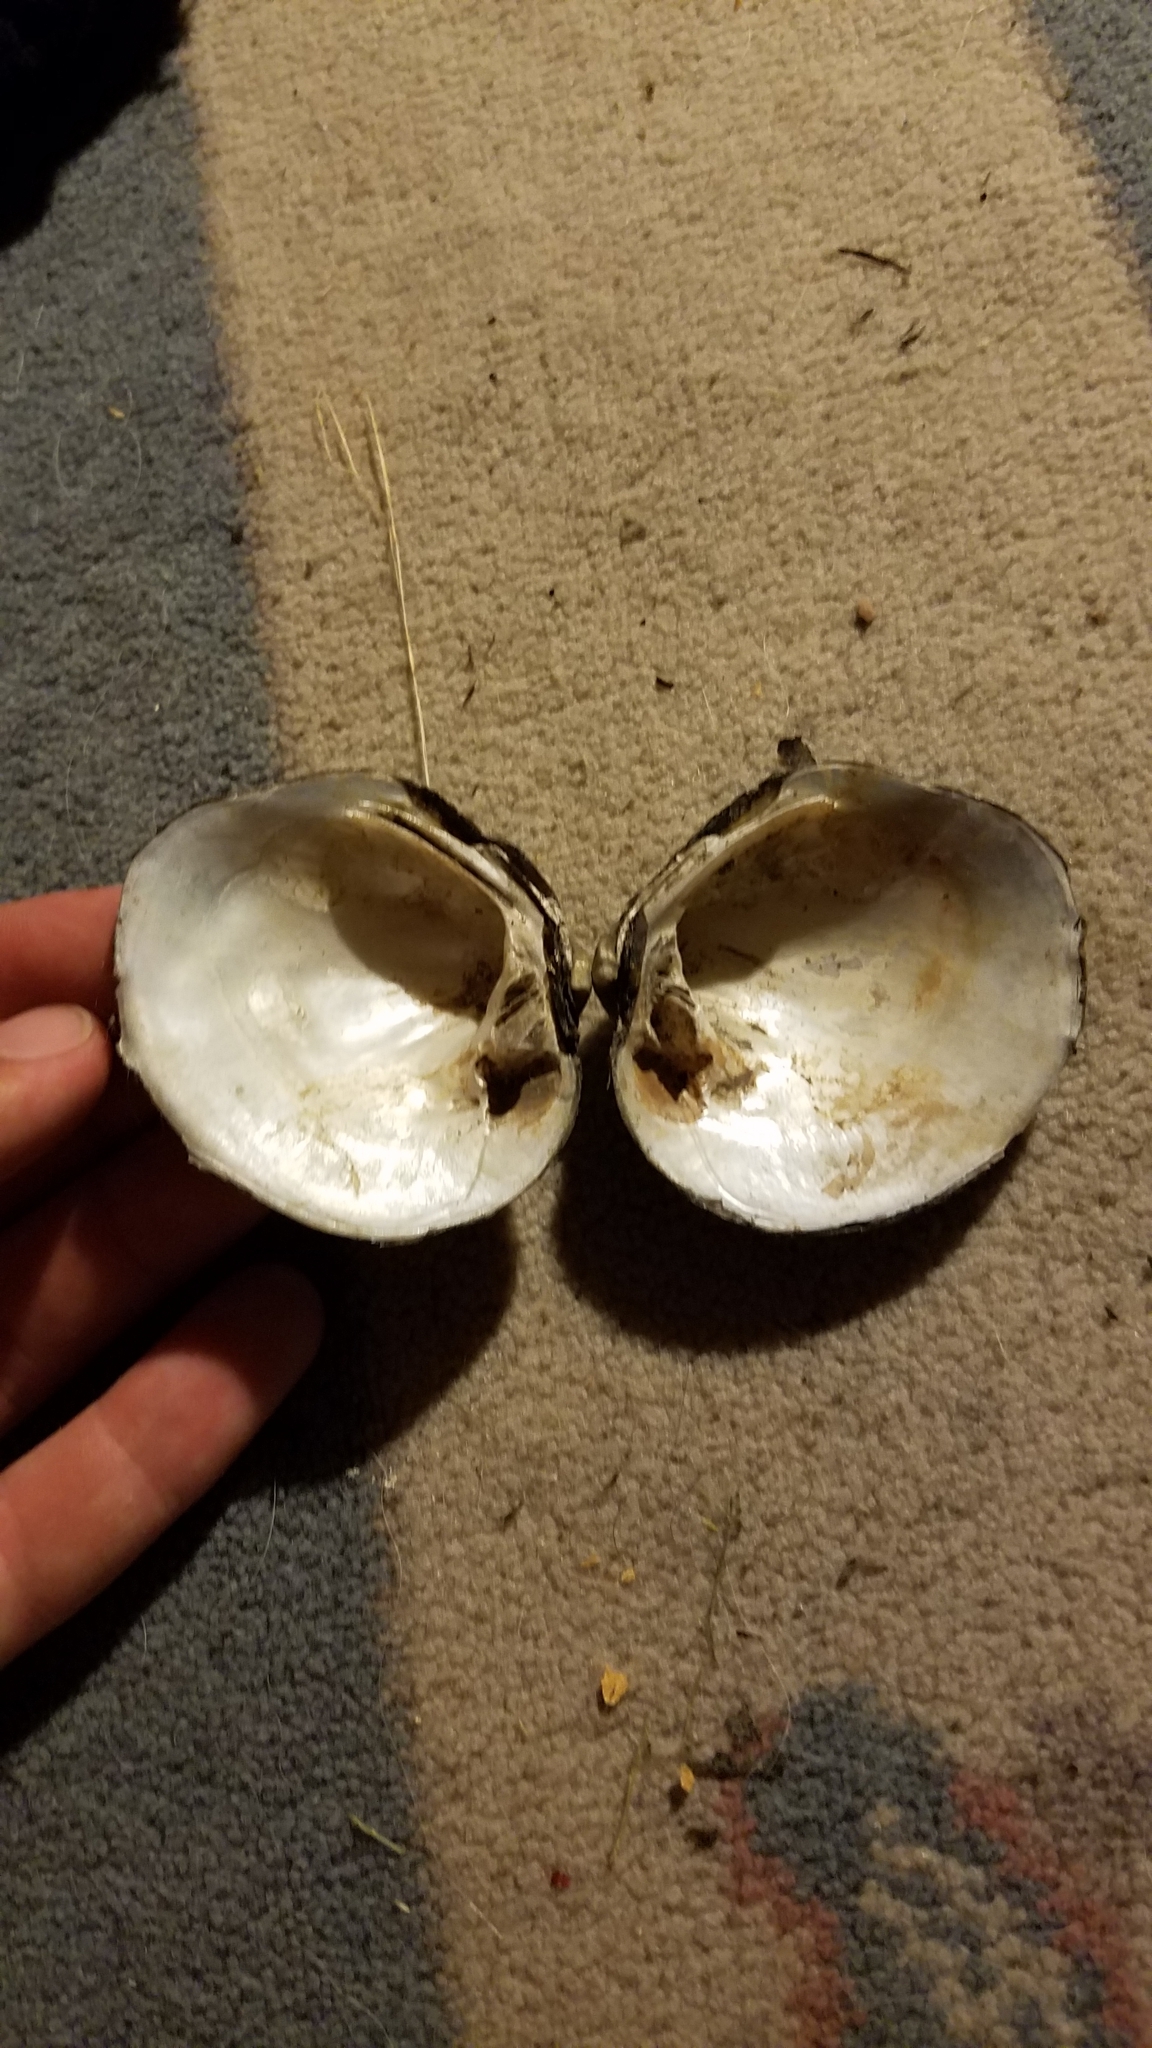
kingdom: Animalia
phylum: Mollusca
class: Bivalvia
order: Unionida
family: Unionidae
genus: Cyclonaias
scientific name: Cyclonaias pustulosa
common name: Pimpleback
